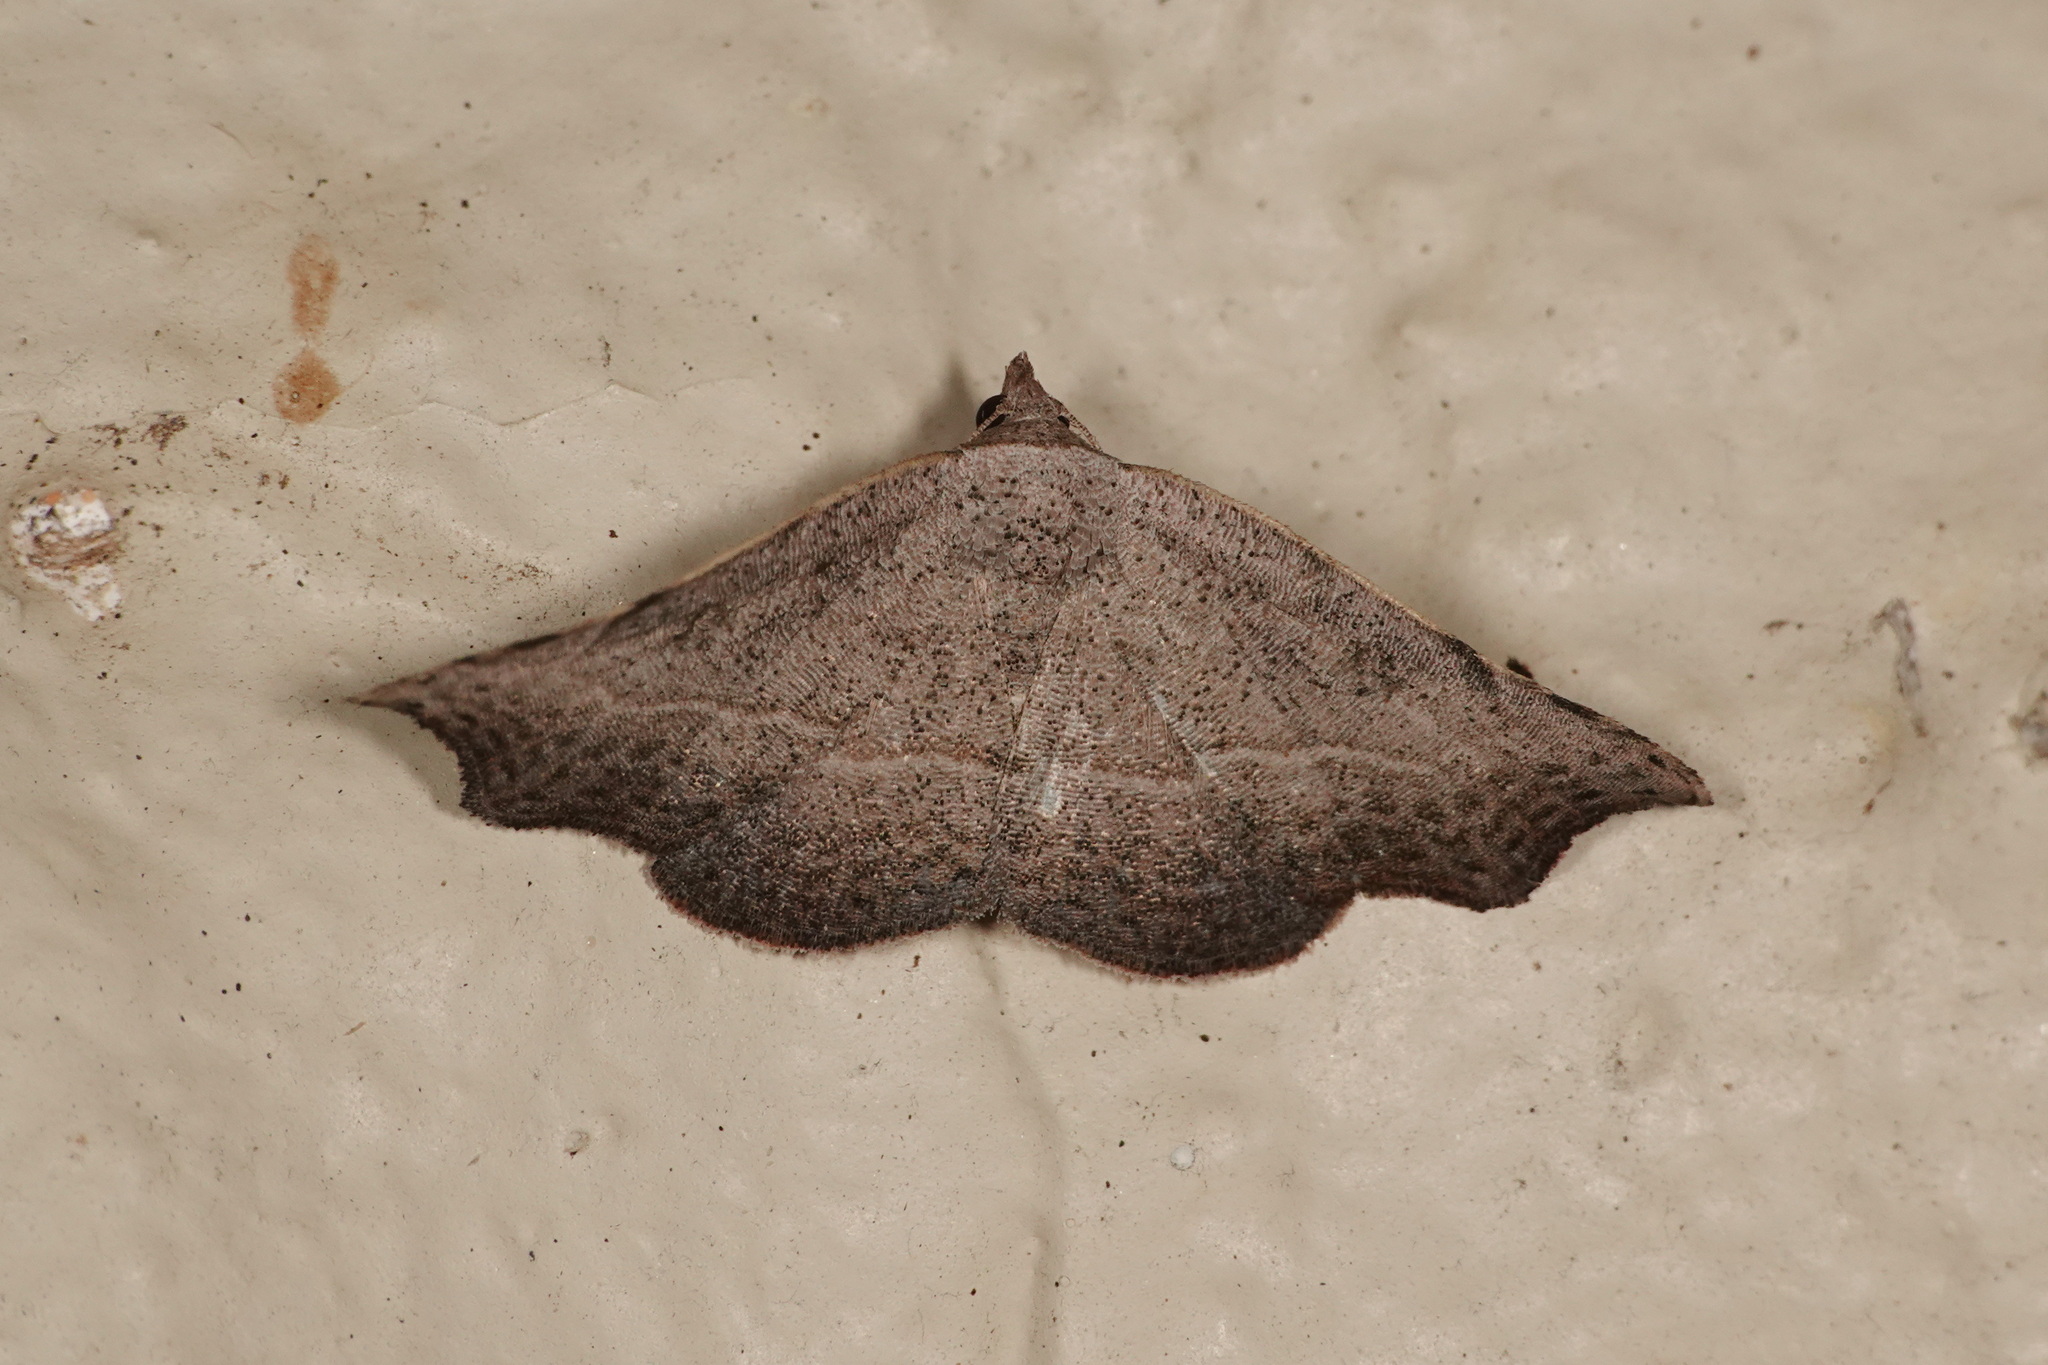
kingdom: Animalia
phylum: Arthropoda
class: Insecta
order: Lepidoptera
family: Erebidae
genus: Laspeyria
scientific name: Laspeyria concavata
